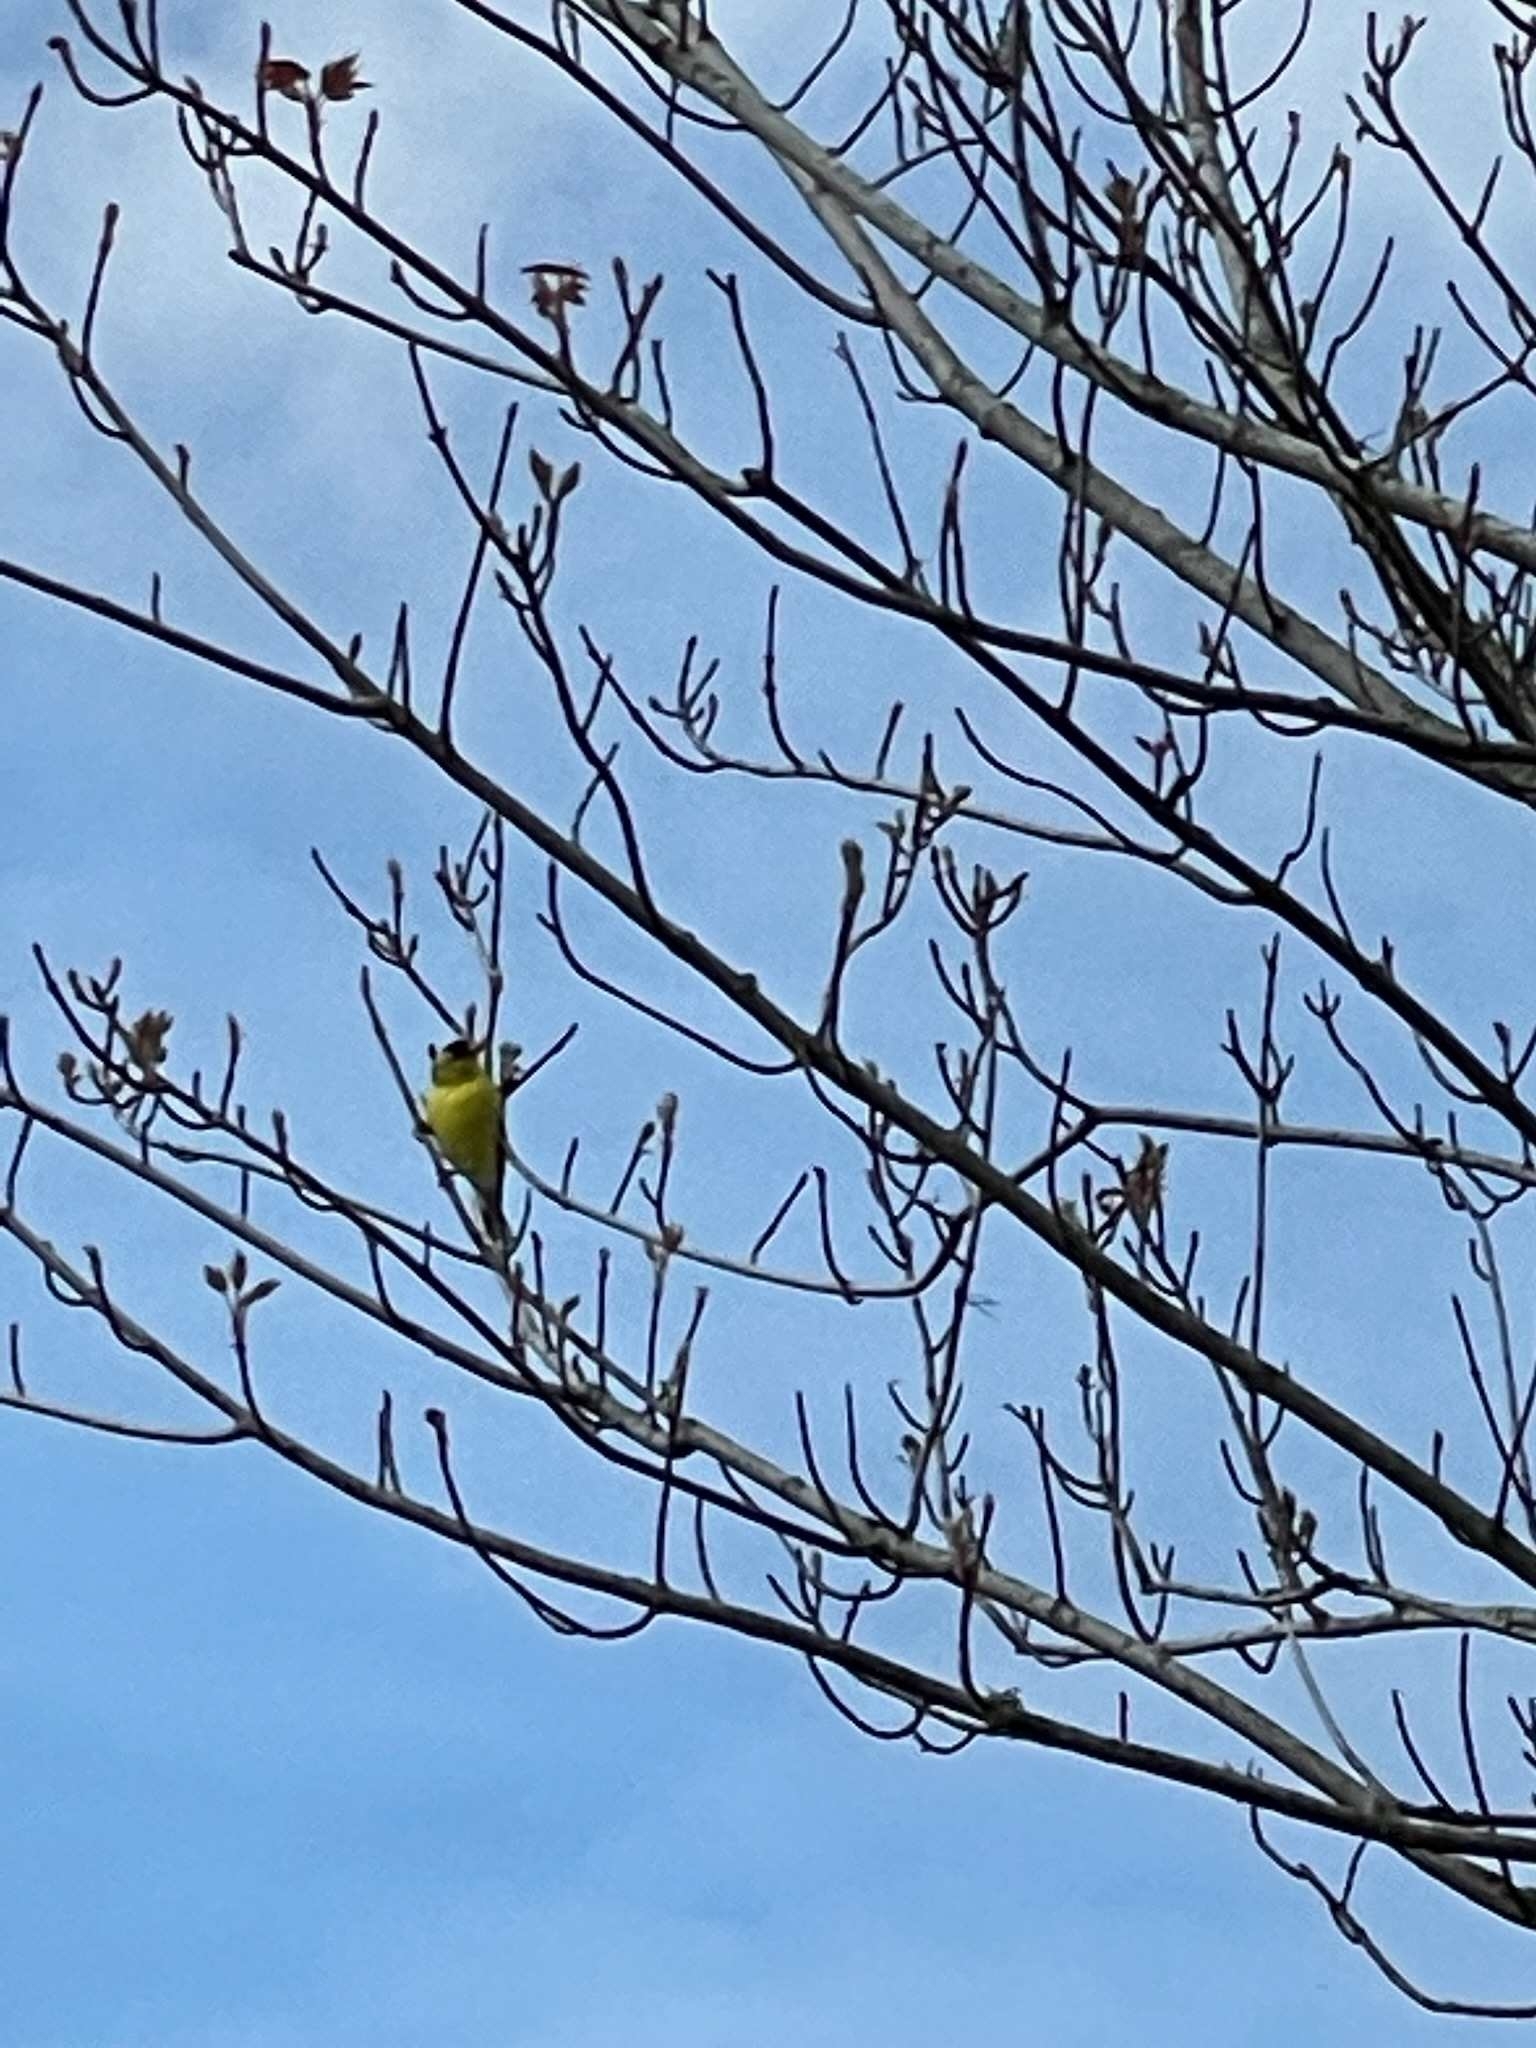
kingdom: Animalia
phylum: Chordata
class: Aves
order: Passeriformes
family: Fringillidae
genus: Spinus
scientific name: Spinus tristis
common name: American goldfinch
